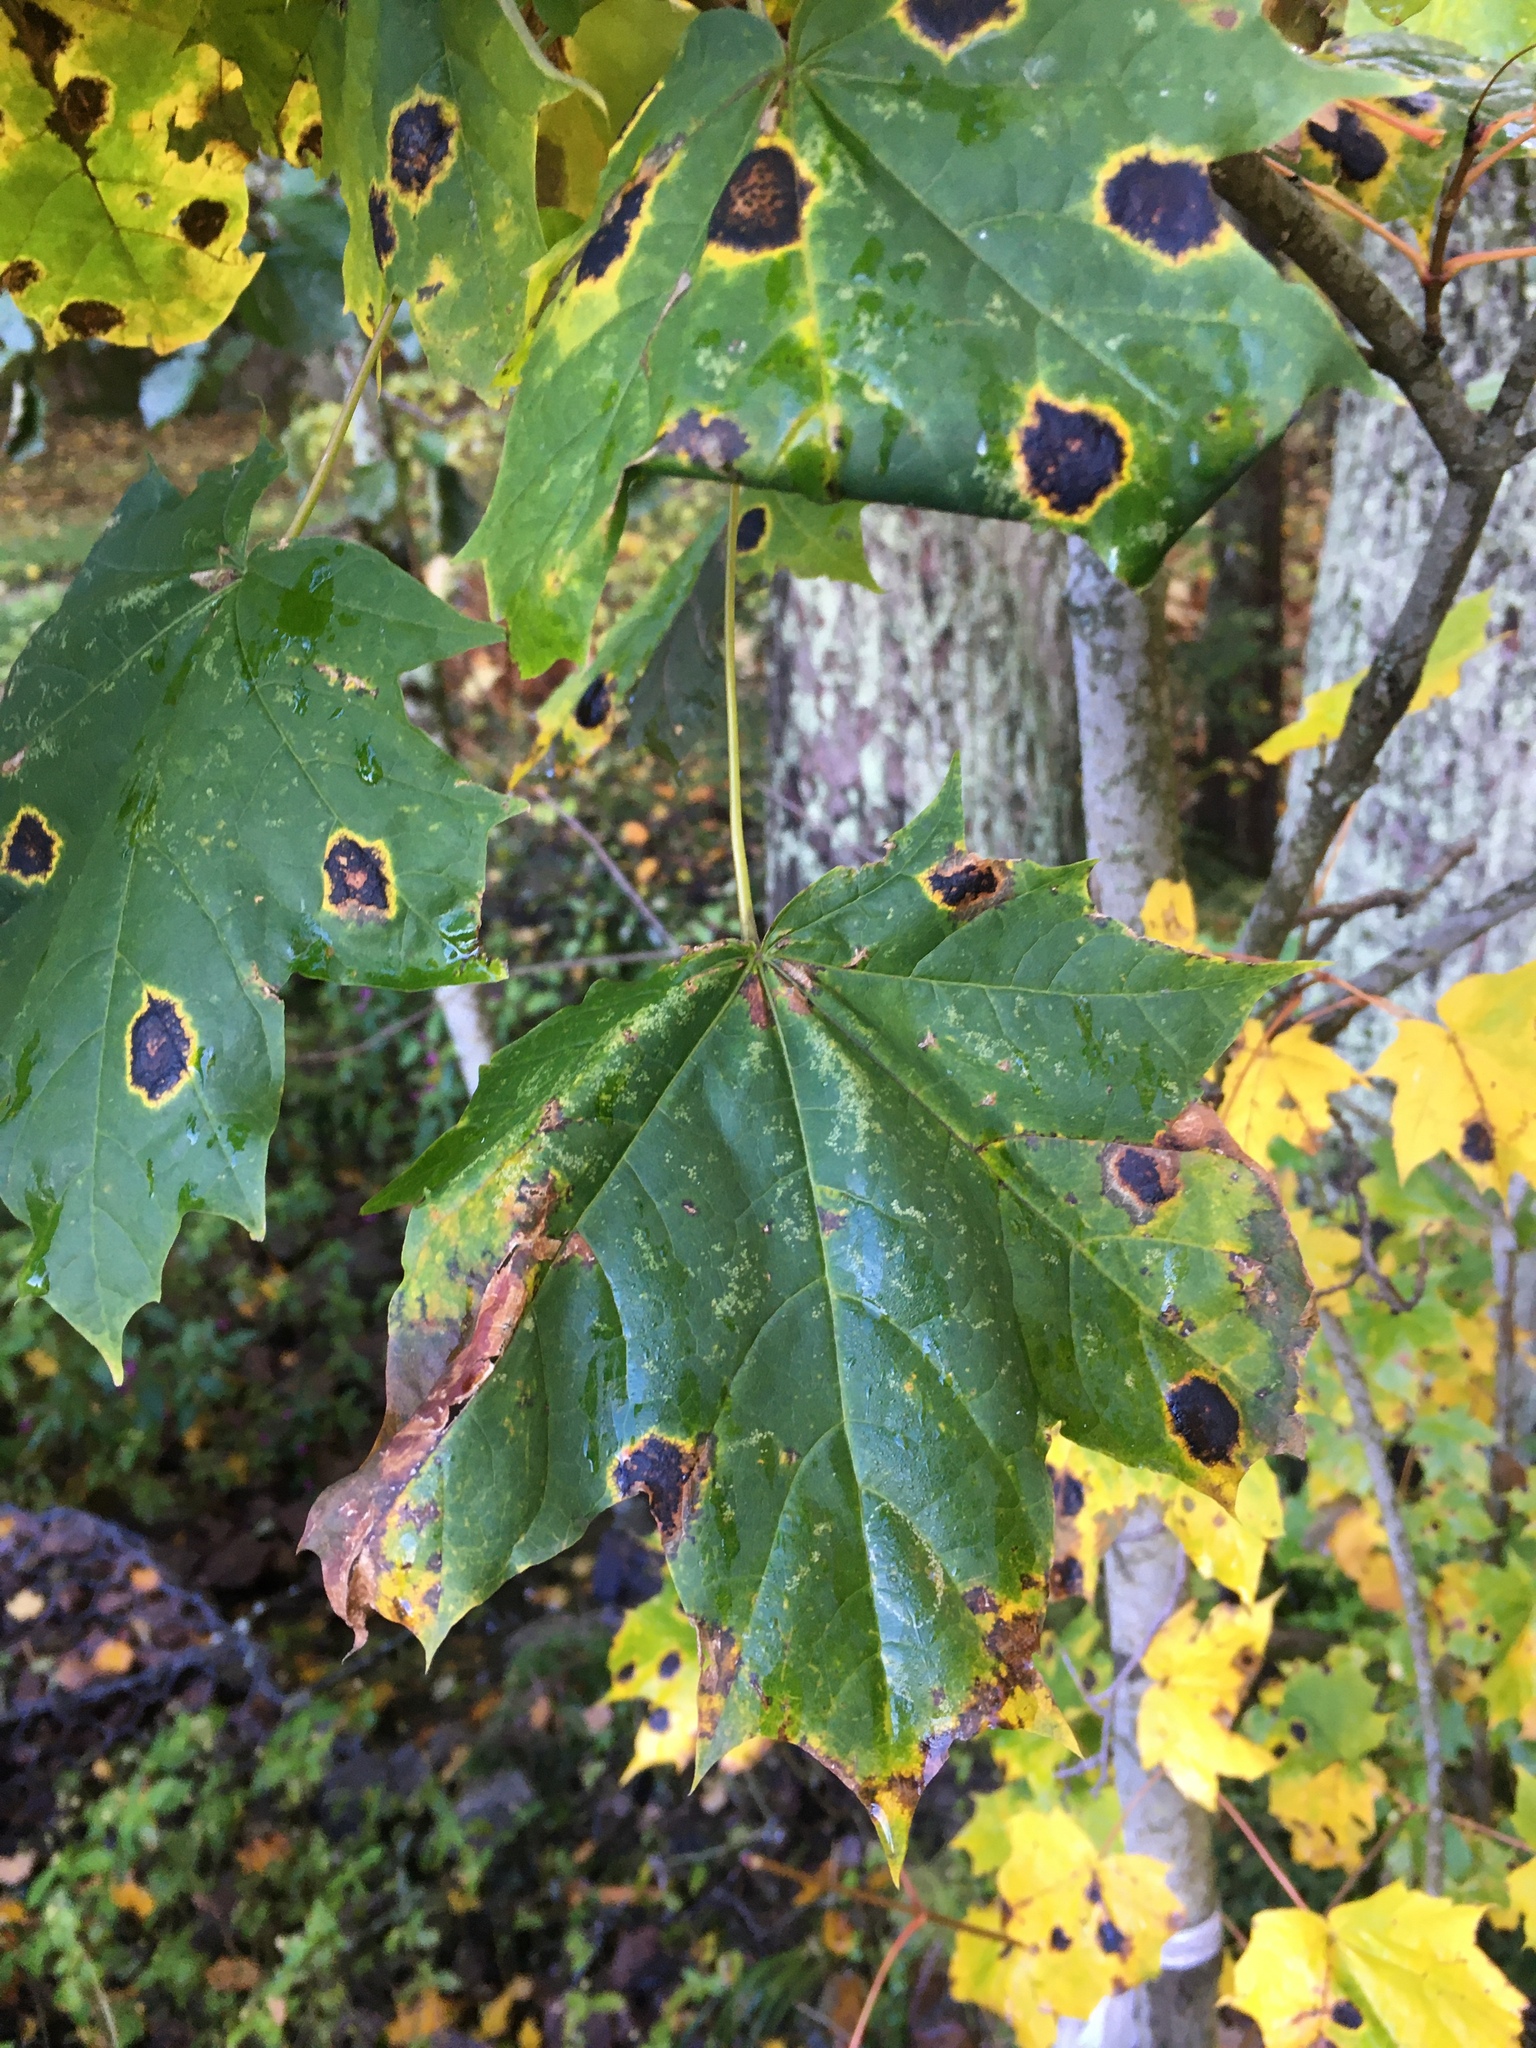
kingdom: Fungi
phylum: Ascomycota
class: Leotiomycetes
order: Rhytismatales
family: Rhytismataceae
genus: Rhytisma
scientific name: Rhytisma acerinum
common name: European tar spot
